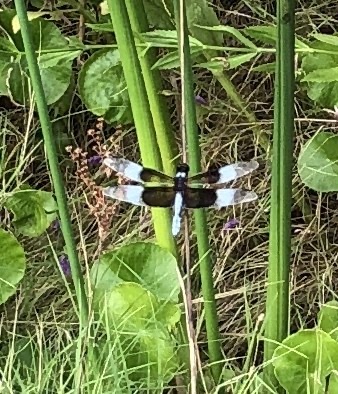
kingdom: Animalia
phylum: Arthropoda
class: Insecta
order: Odonata
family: Libellulidae
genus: Libellula
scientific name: Libellula luctuosa
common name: Widow skimmer
